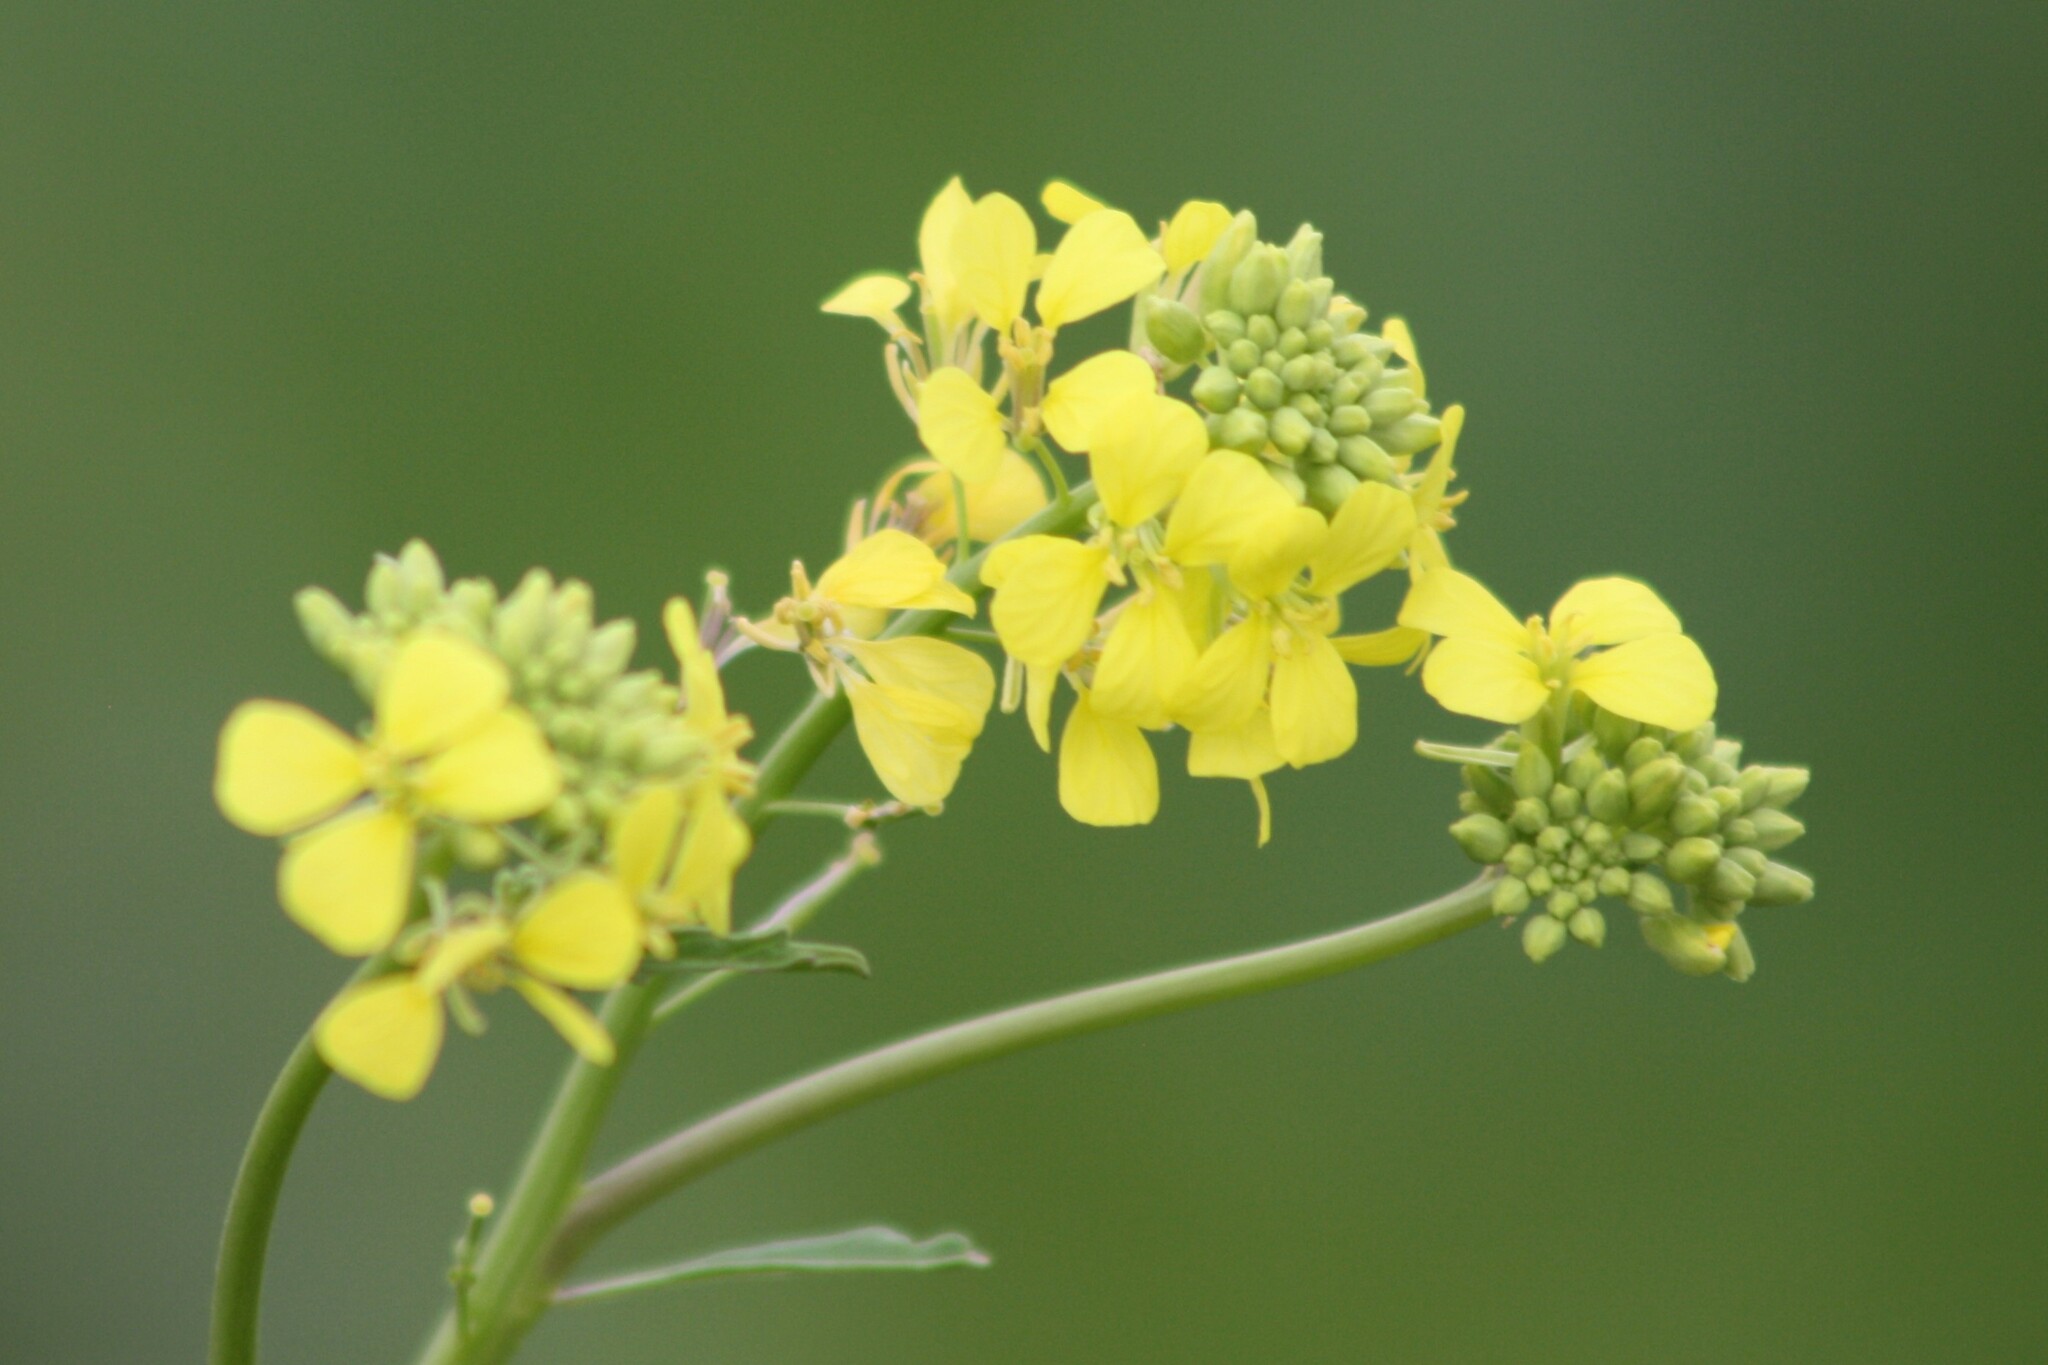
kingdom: Plantae
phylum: Tracheophyta
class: Magnoliopsida
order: Brassicales
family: Brassicaceae
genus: Rapistrum
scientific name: Rapistrum rugosum
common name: Annual bastardcabbage
